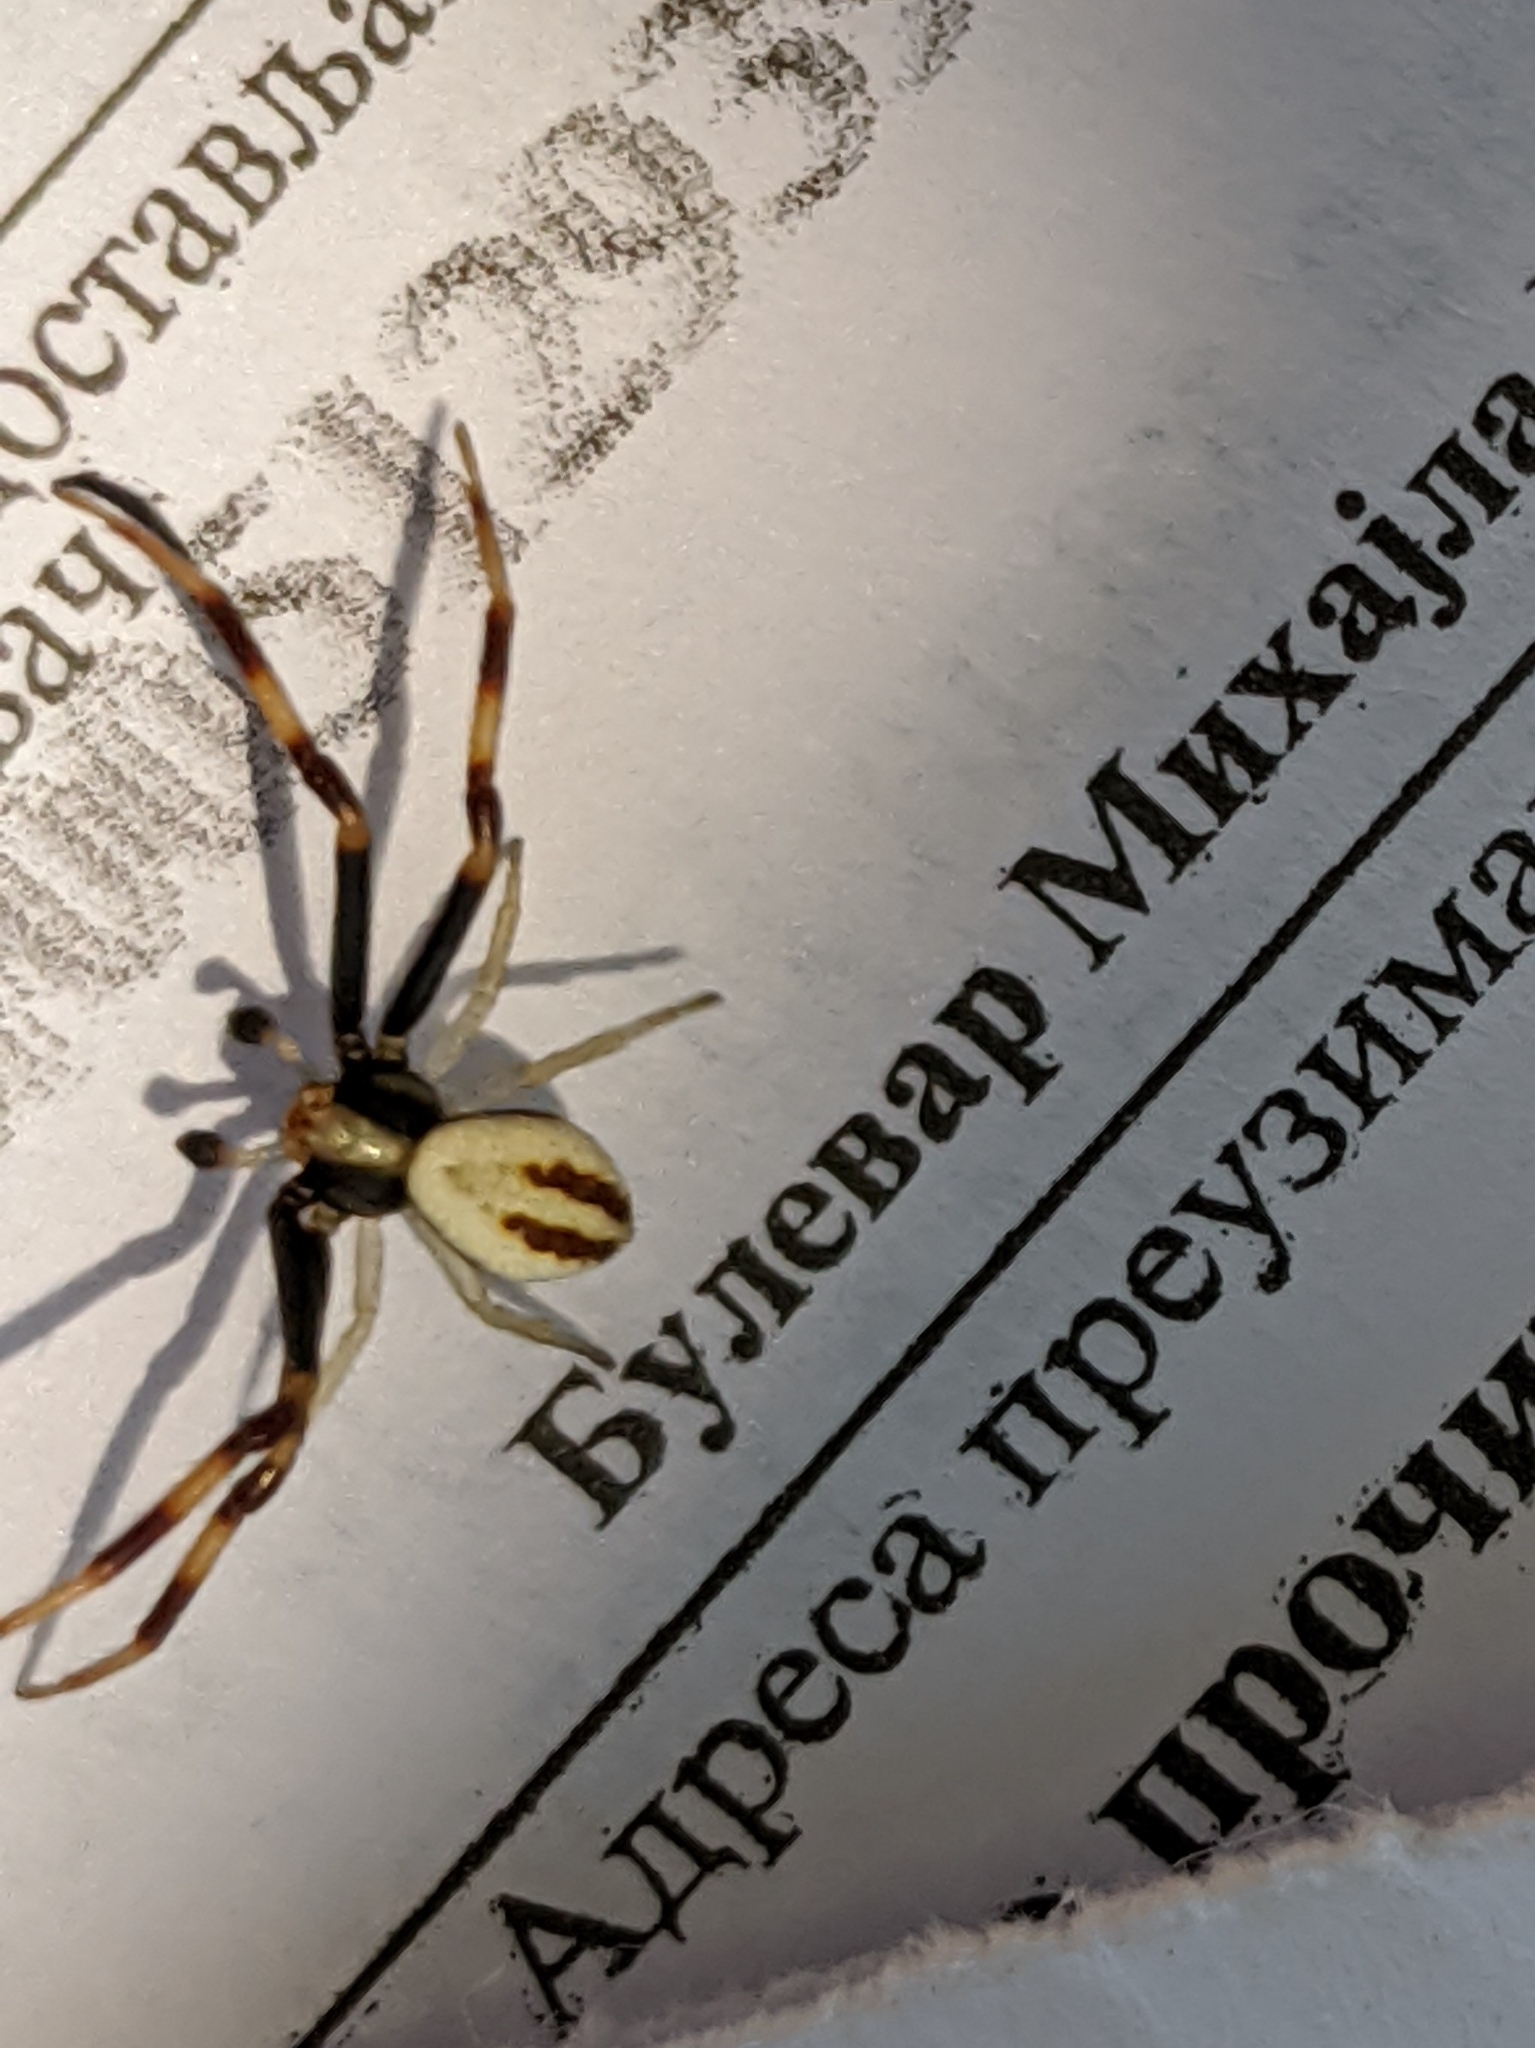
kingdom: Animalia
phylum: Arthropoda
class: Arachnida
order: Araneae
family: Thomisidae
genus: Misumena
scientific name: Misumena vatia
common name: Goldenrod crab spider
